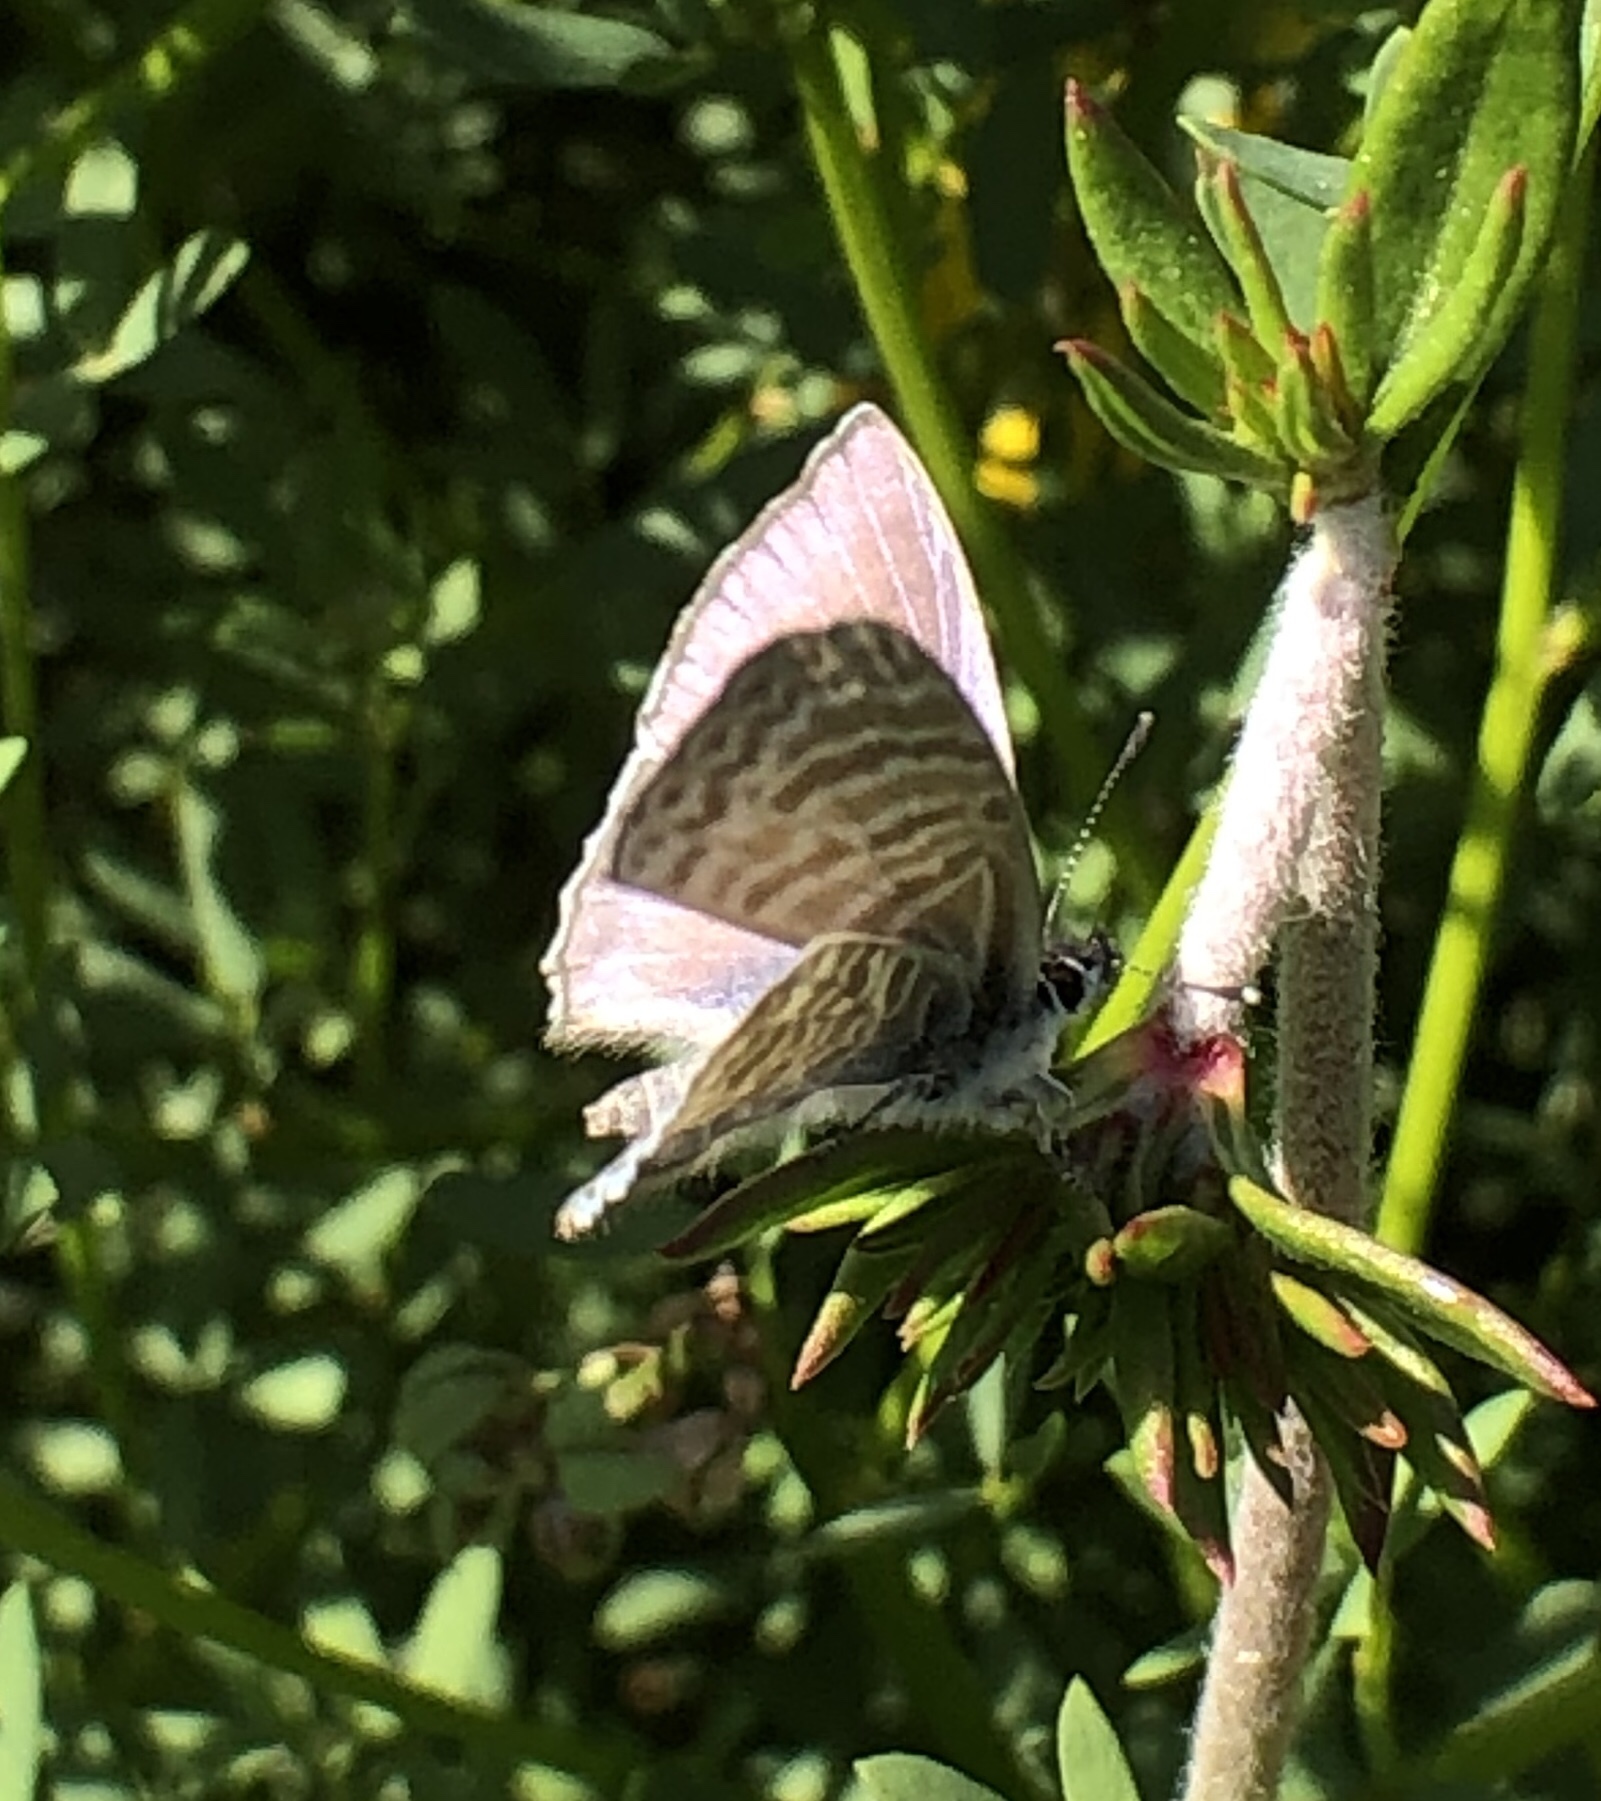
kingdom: Animalia
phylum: Arthropoda
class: Insecta
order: Lepidoptera
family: Lycaenidae
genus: Leptotes
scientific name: Leptotes marina
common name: Marine blue
